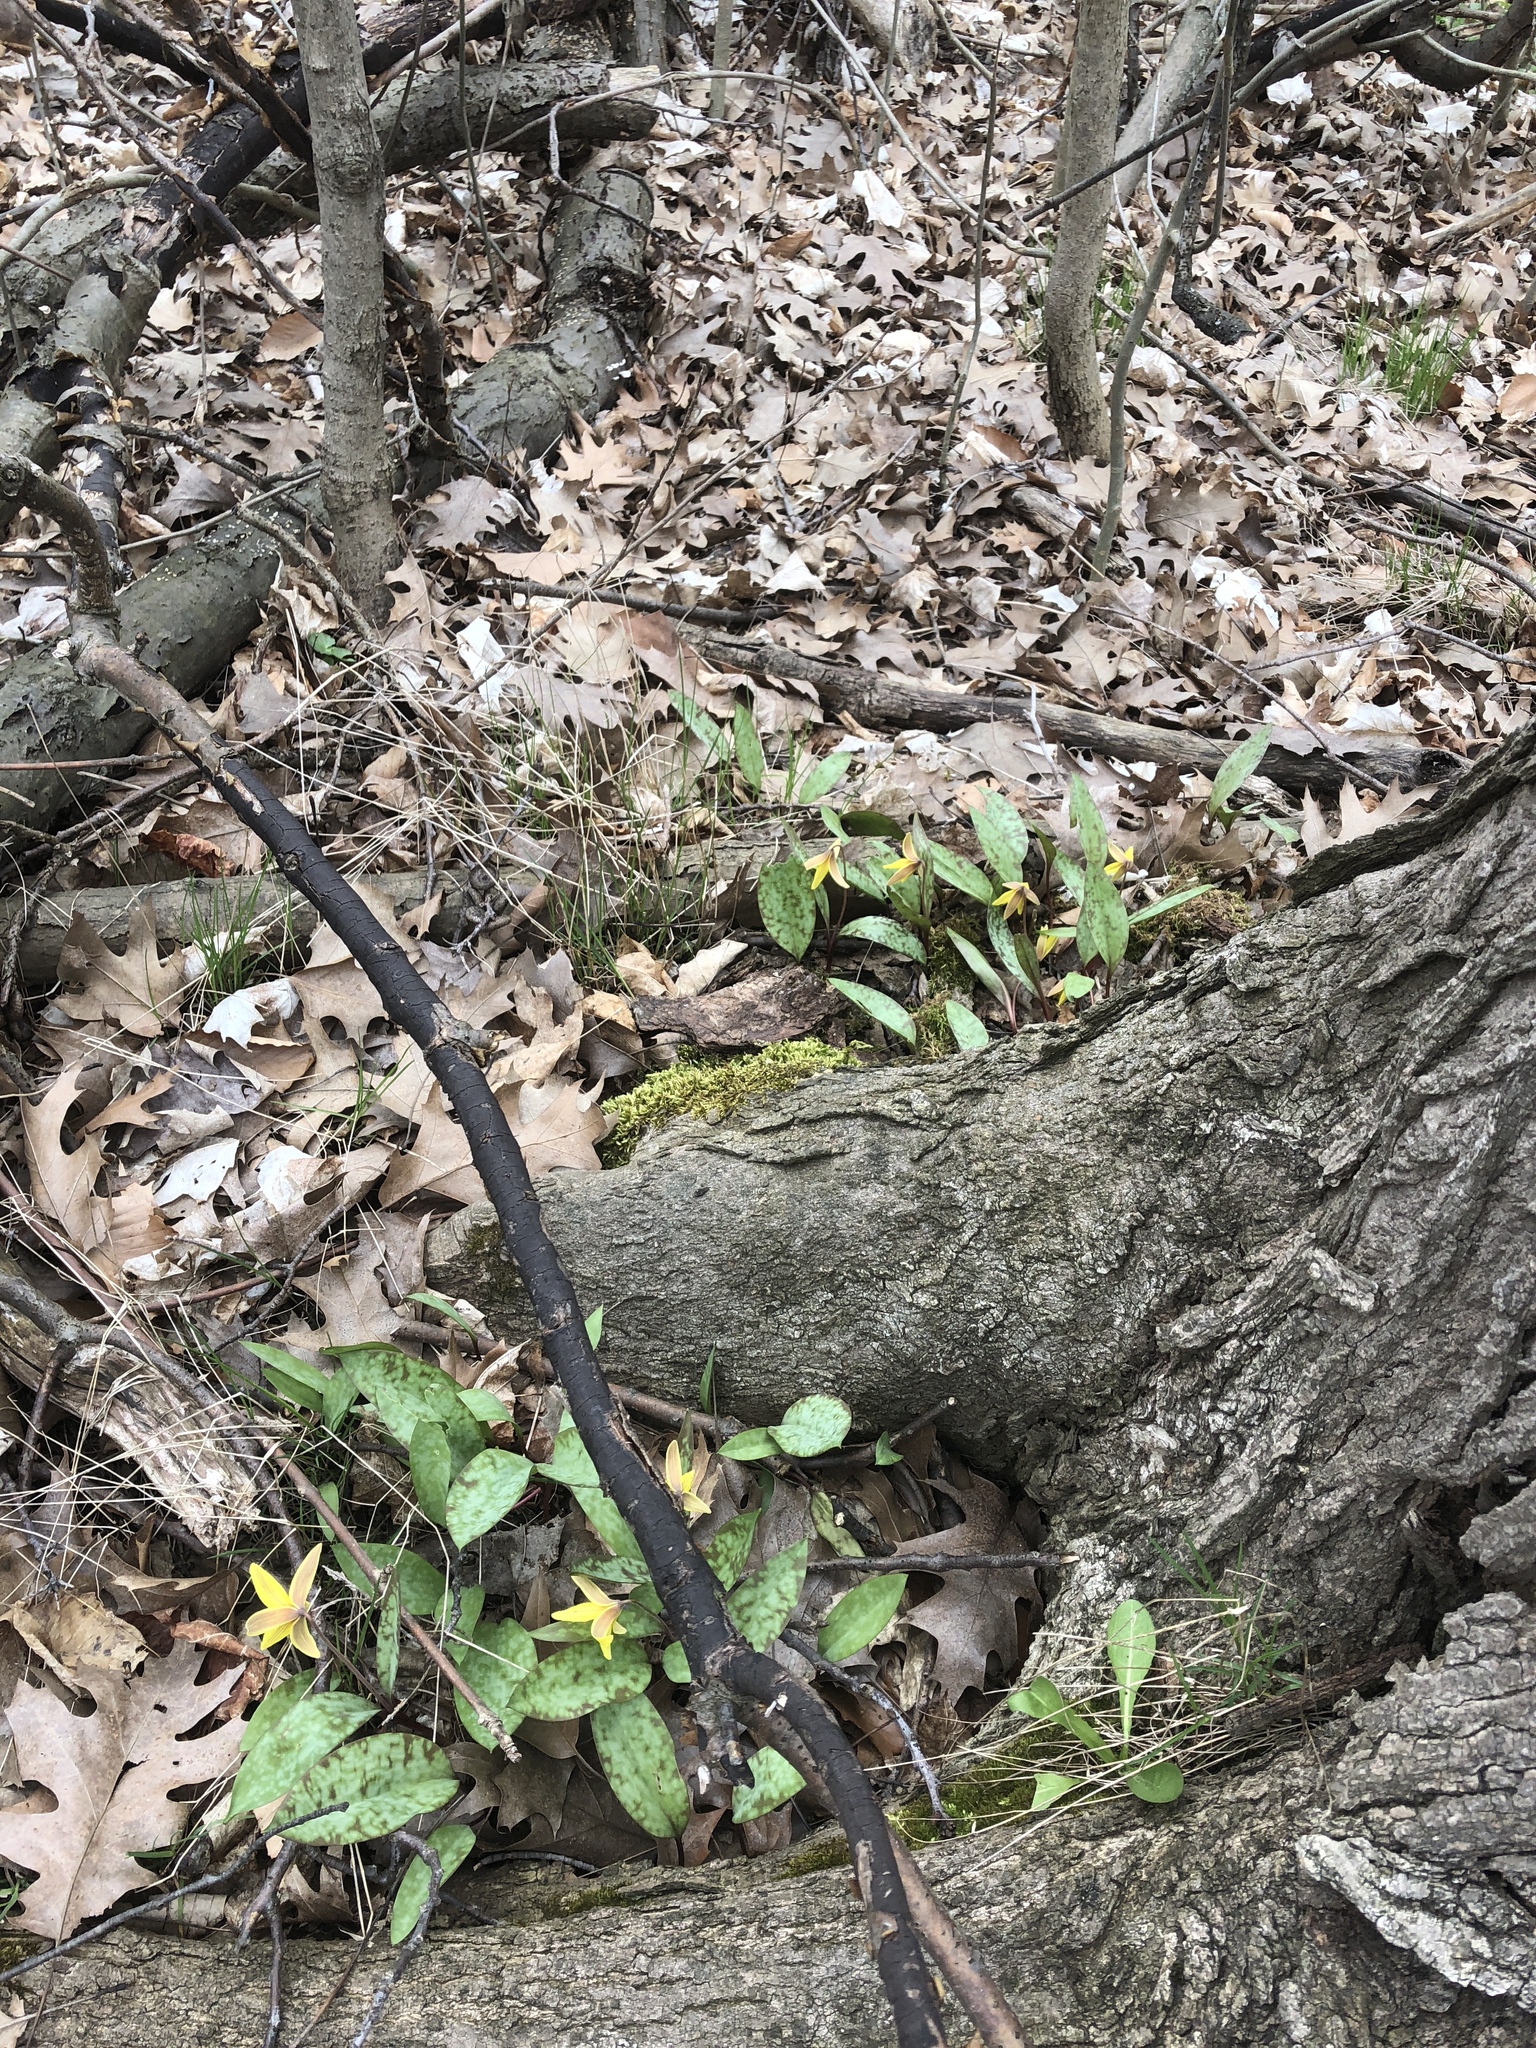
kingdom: Plantae
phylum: Tracheophyta
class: Liliopsida
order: Liliales
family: Liliaceae
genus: Erythronium
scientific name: Erythronium americanum
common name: Yellow adder's-tongue
